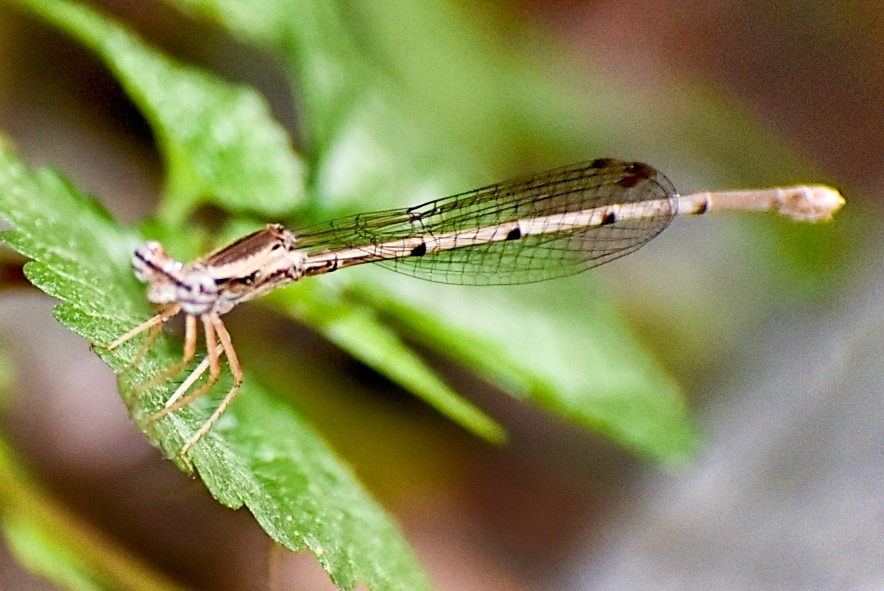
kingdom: Animalia
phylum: Arthropoda
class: Insecta
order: Odonata
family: Platycnemididae
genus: Copera
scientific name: Copera marginipes
